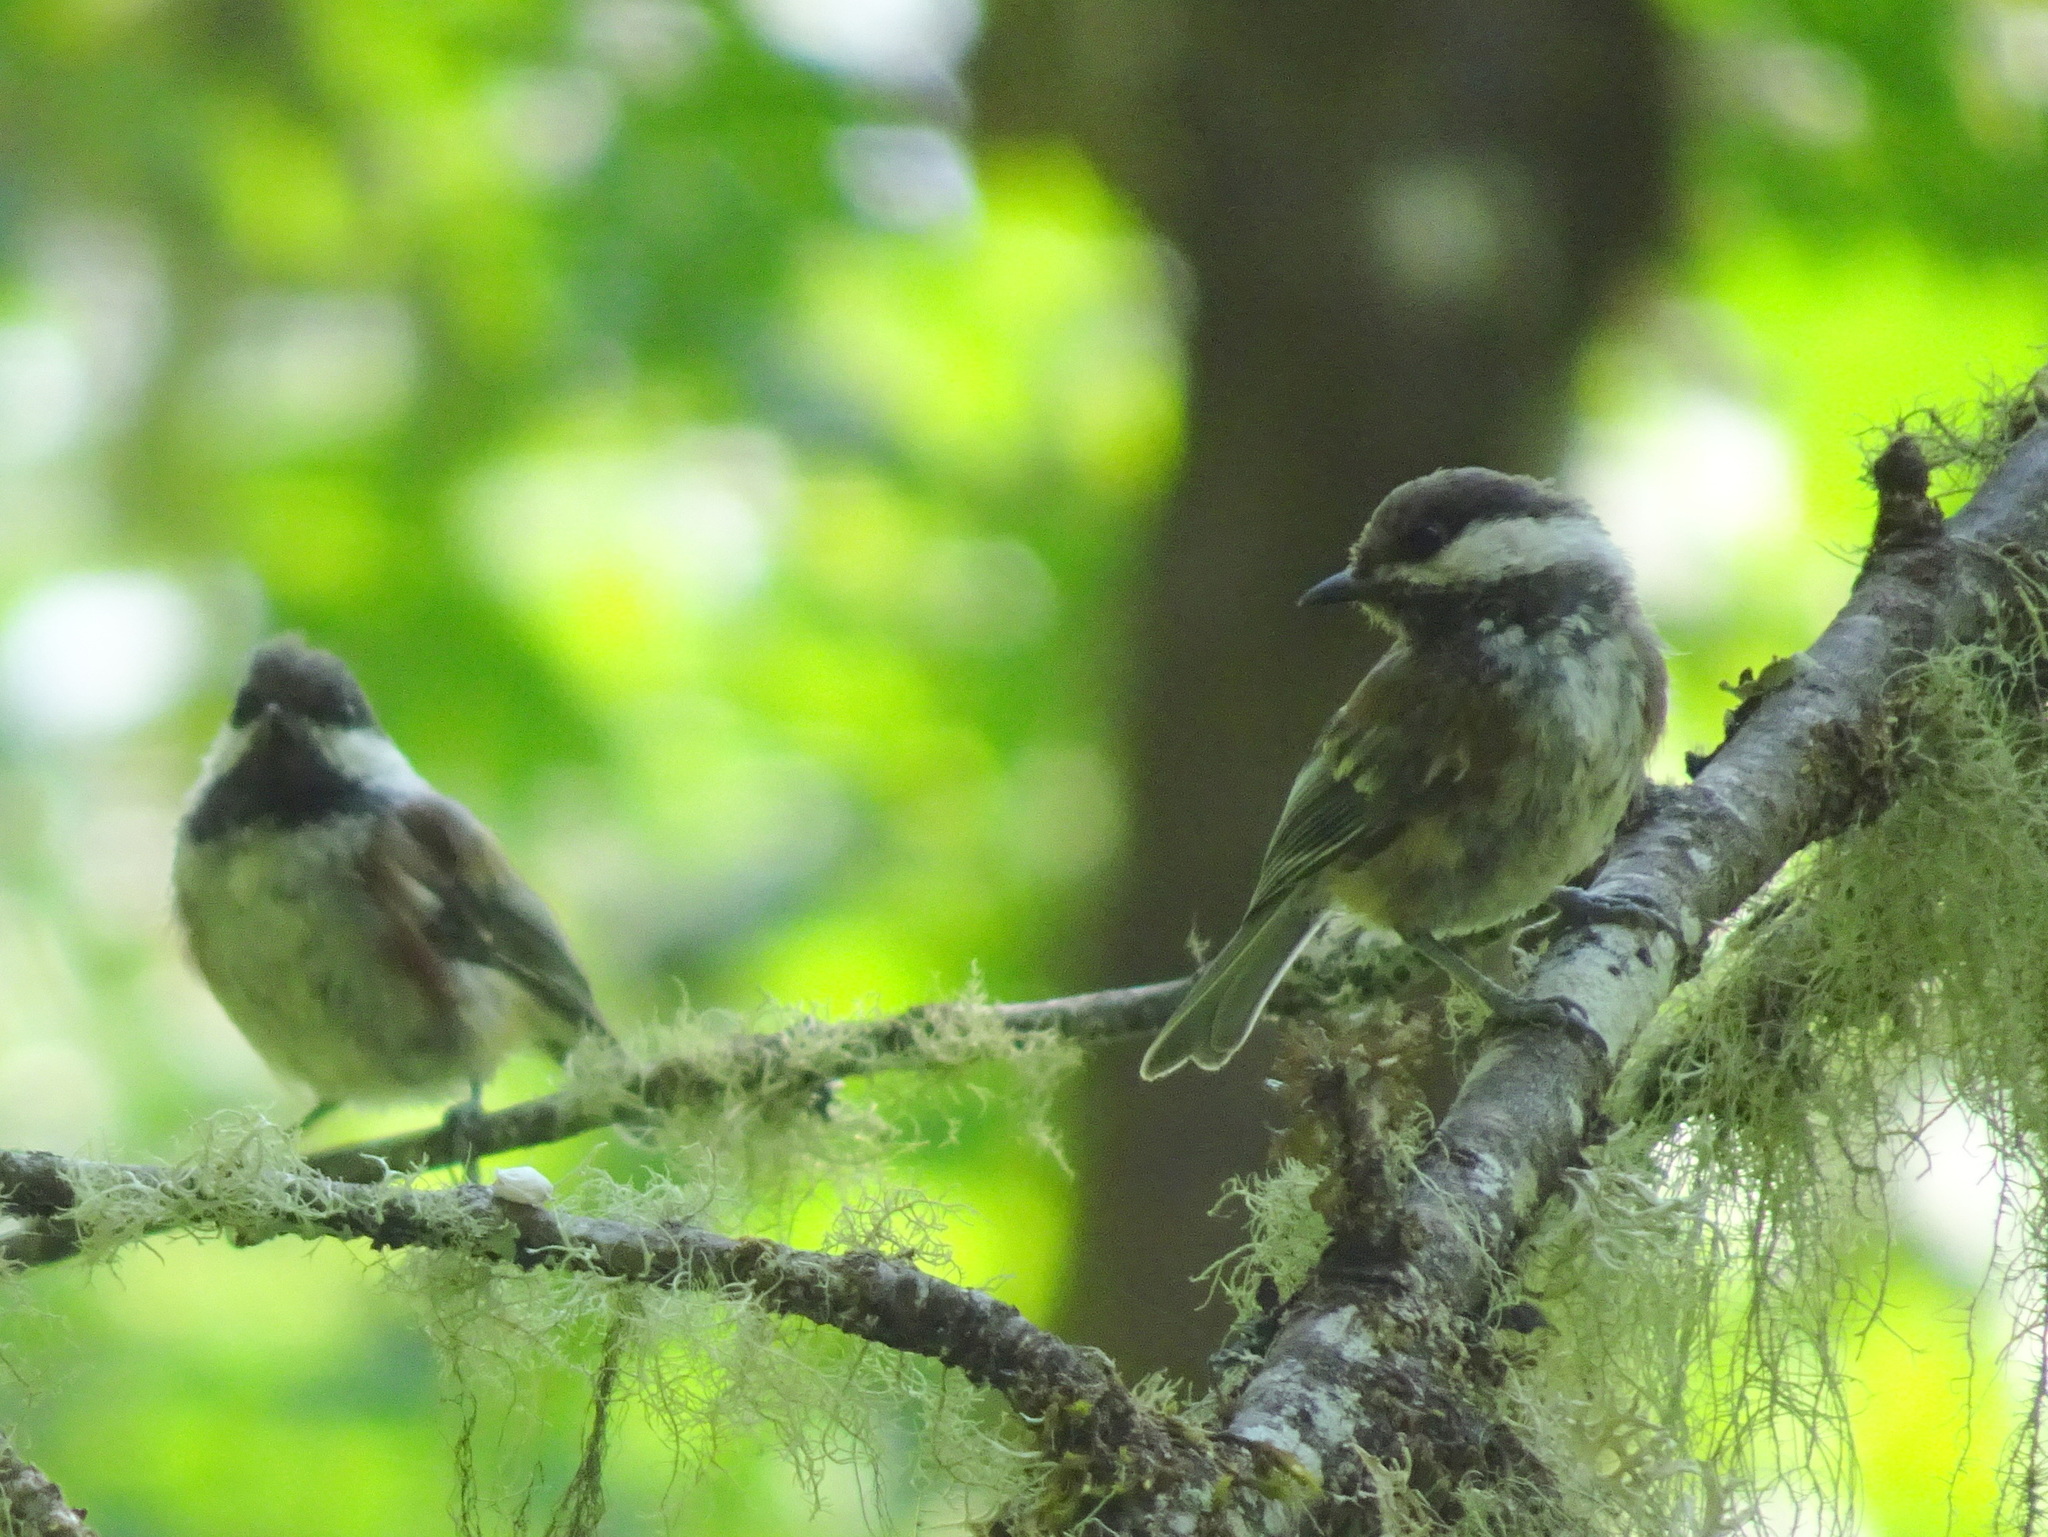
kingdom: Animalia
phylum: Chordata
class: Aves
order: Passeriformes
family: Paridae
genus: Poecile
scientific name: Poecile rufescens
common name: Chestnut-backed chickadee
